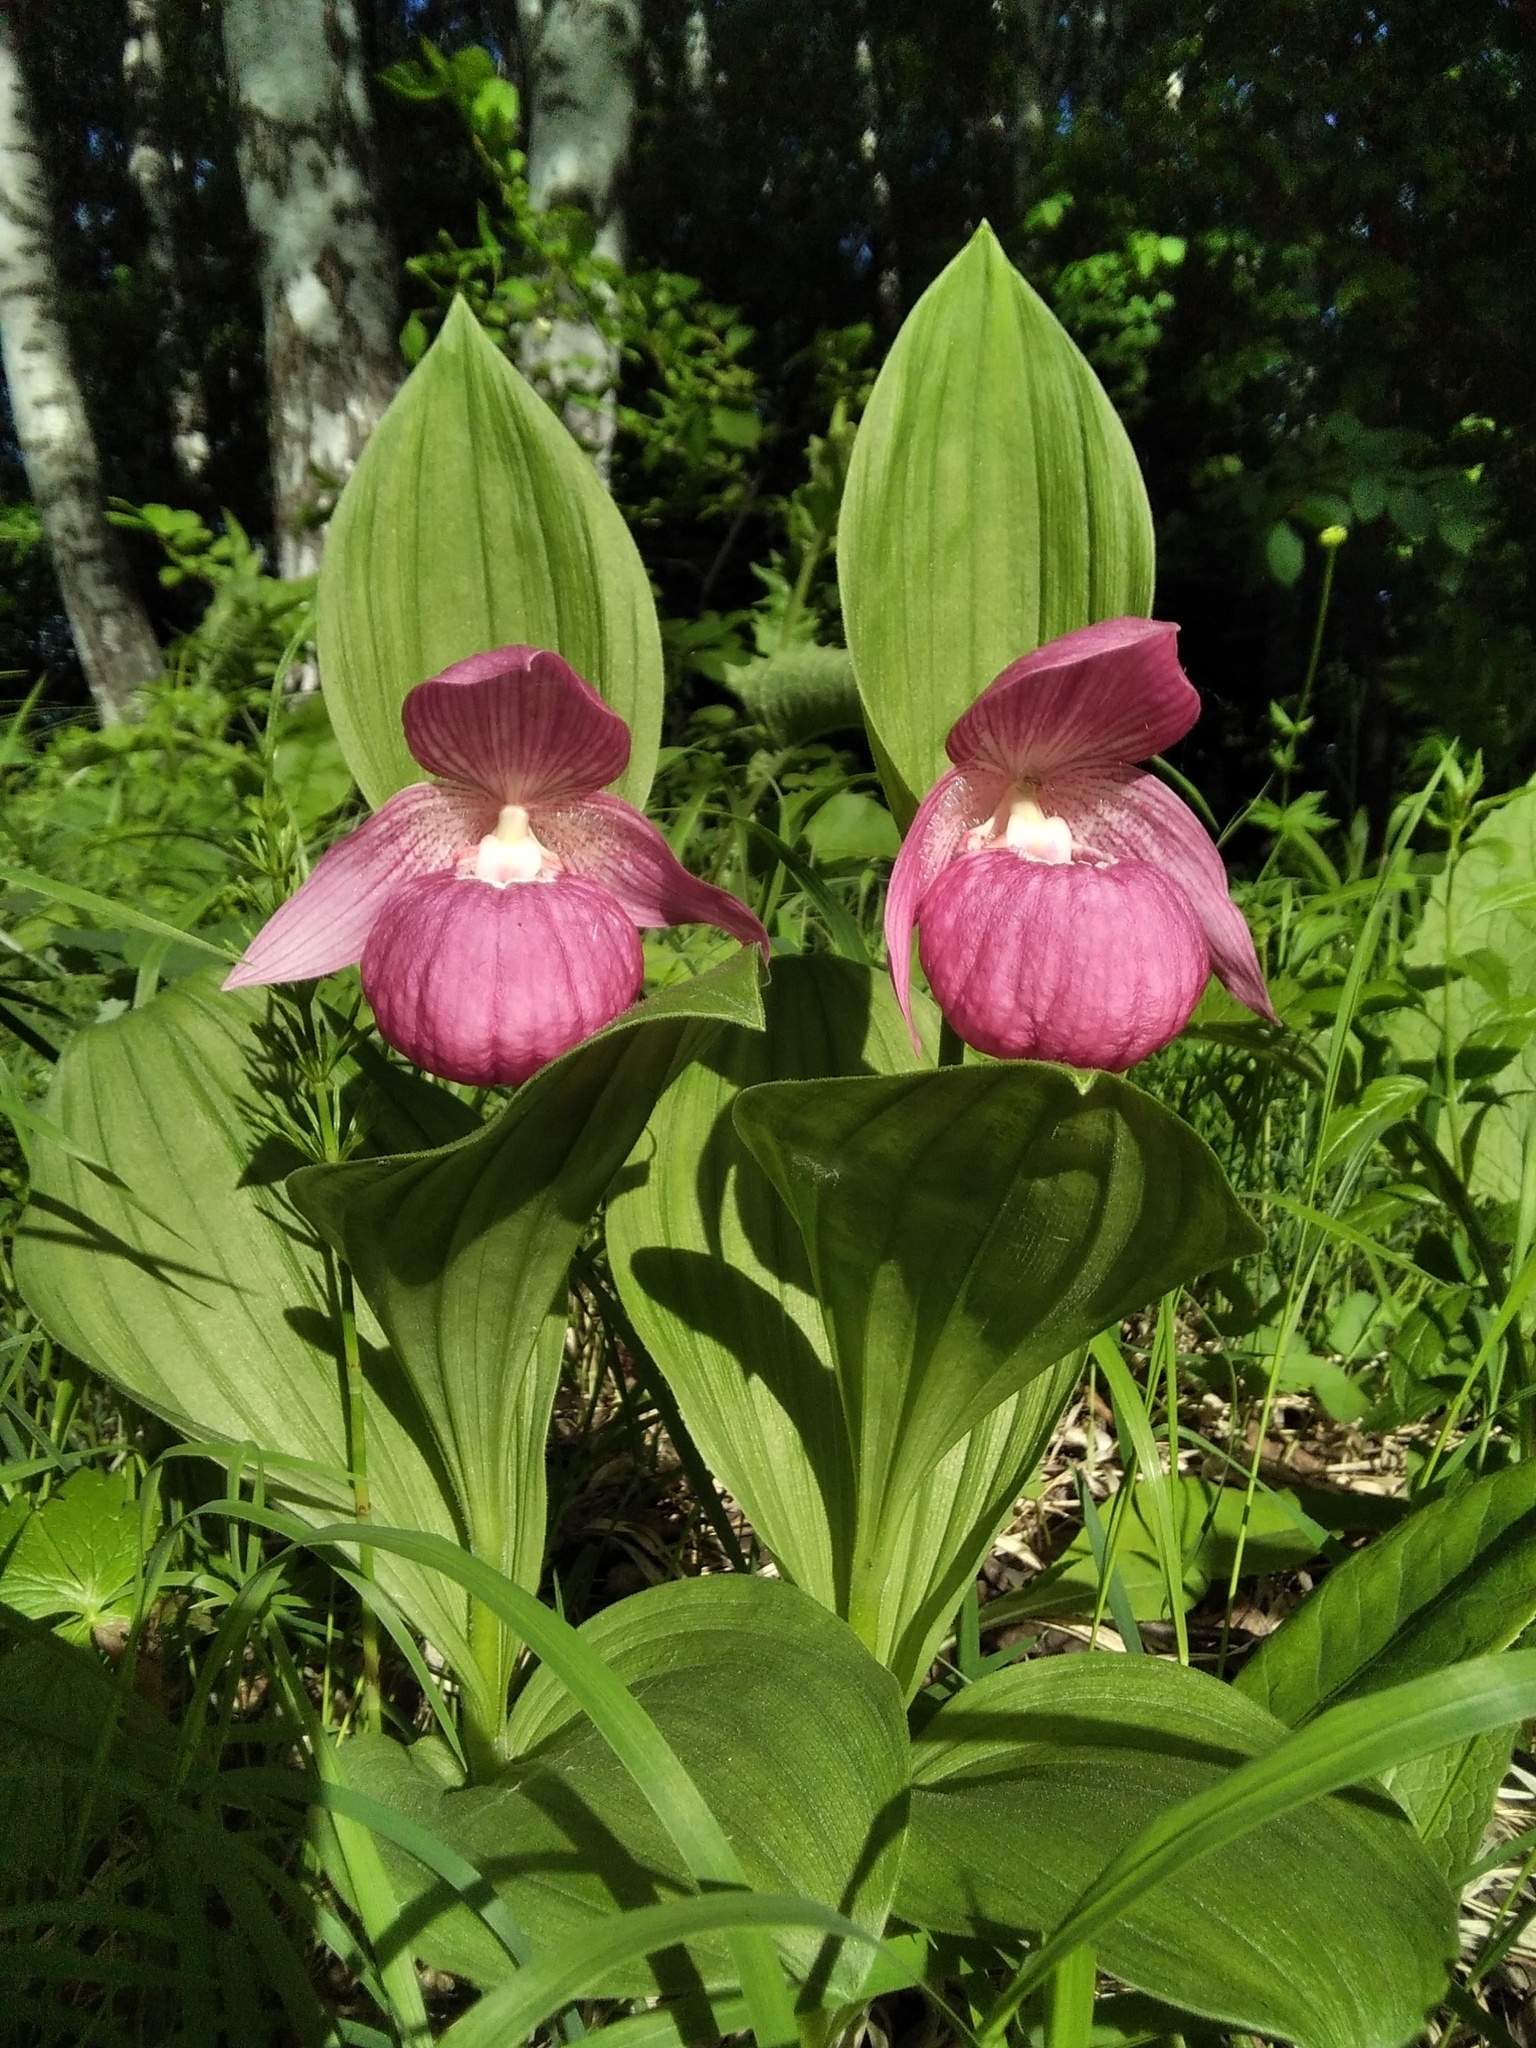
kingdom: Plantae
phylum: Tracheophyta
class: Liliopsida
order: Asparagales
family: Orchidaceae
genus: Cypripedium
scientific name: Cypripedium macranthos
